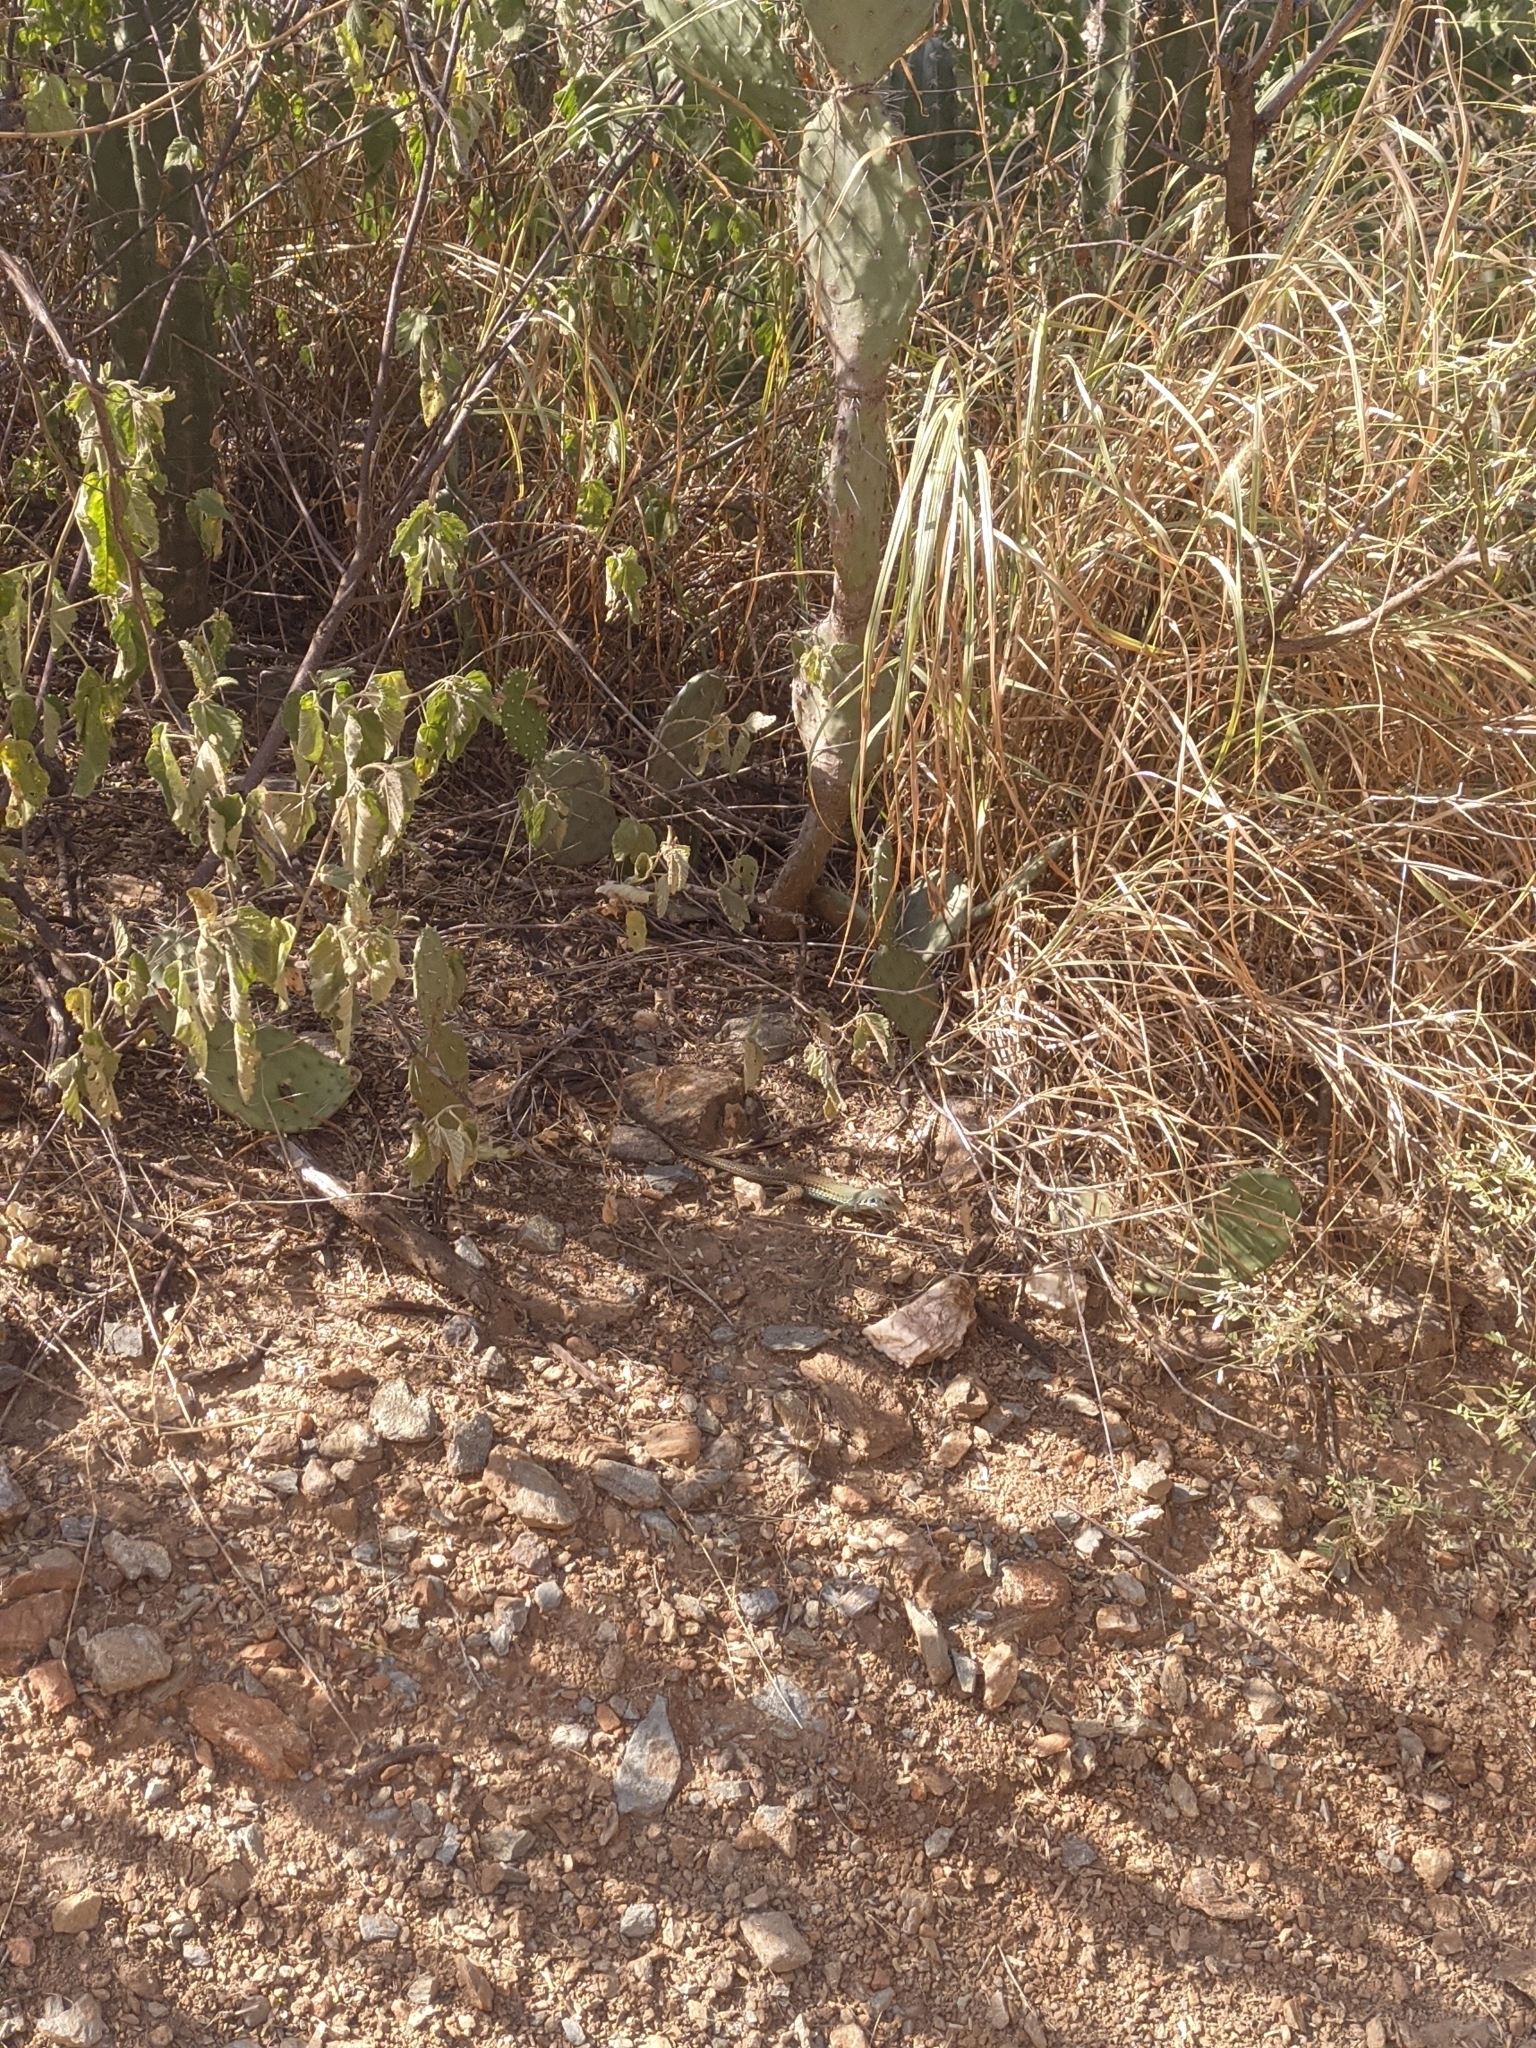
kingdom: Animalia
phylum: Chordata
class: Squamata
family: Teiidae
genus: Ameiva
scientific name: Ameiva bifrontata
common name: Cope's ameiva
